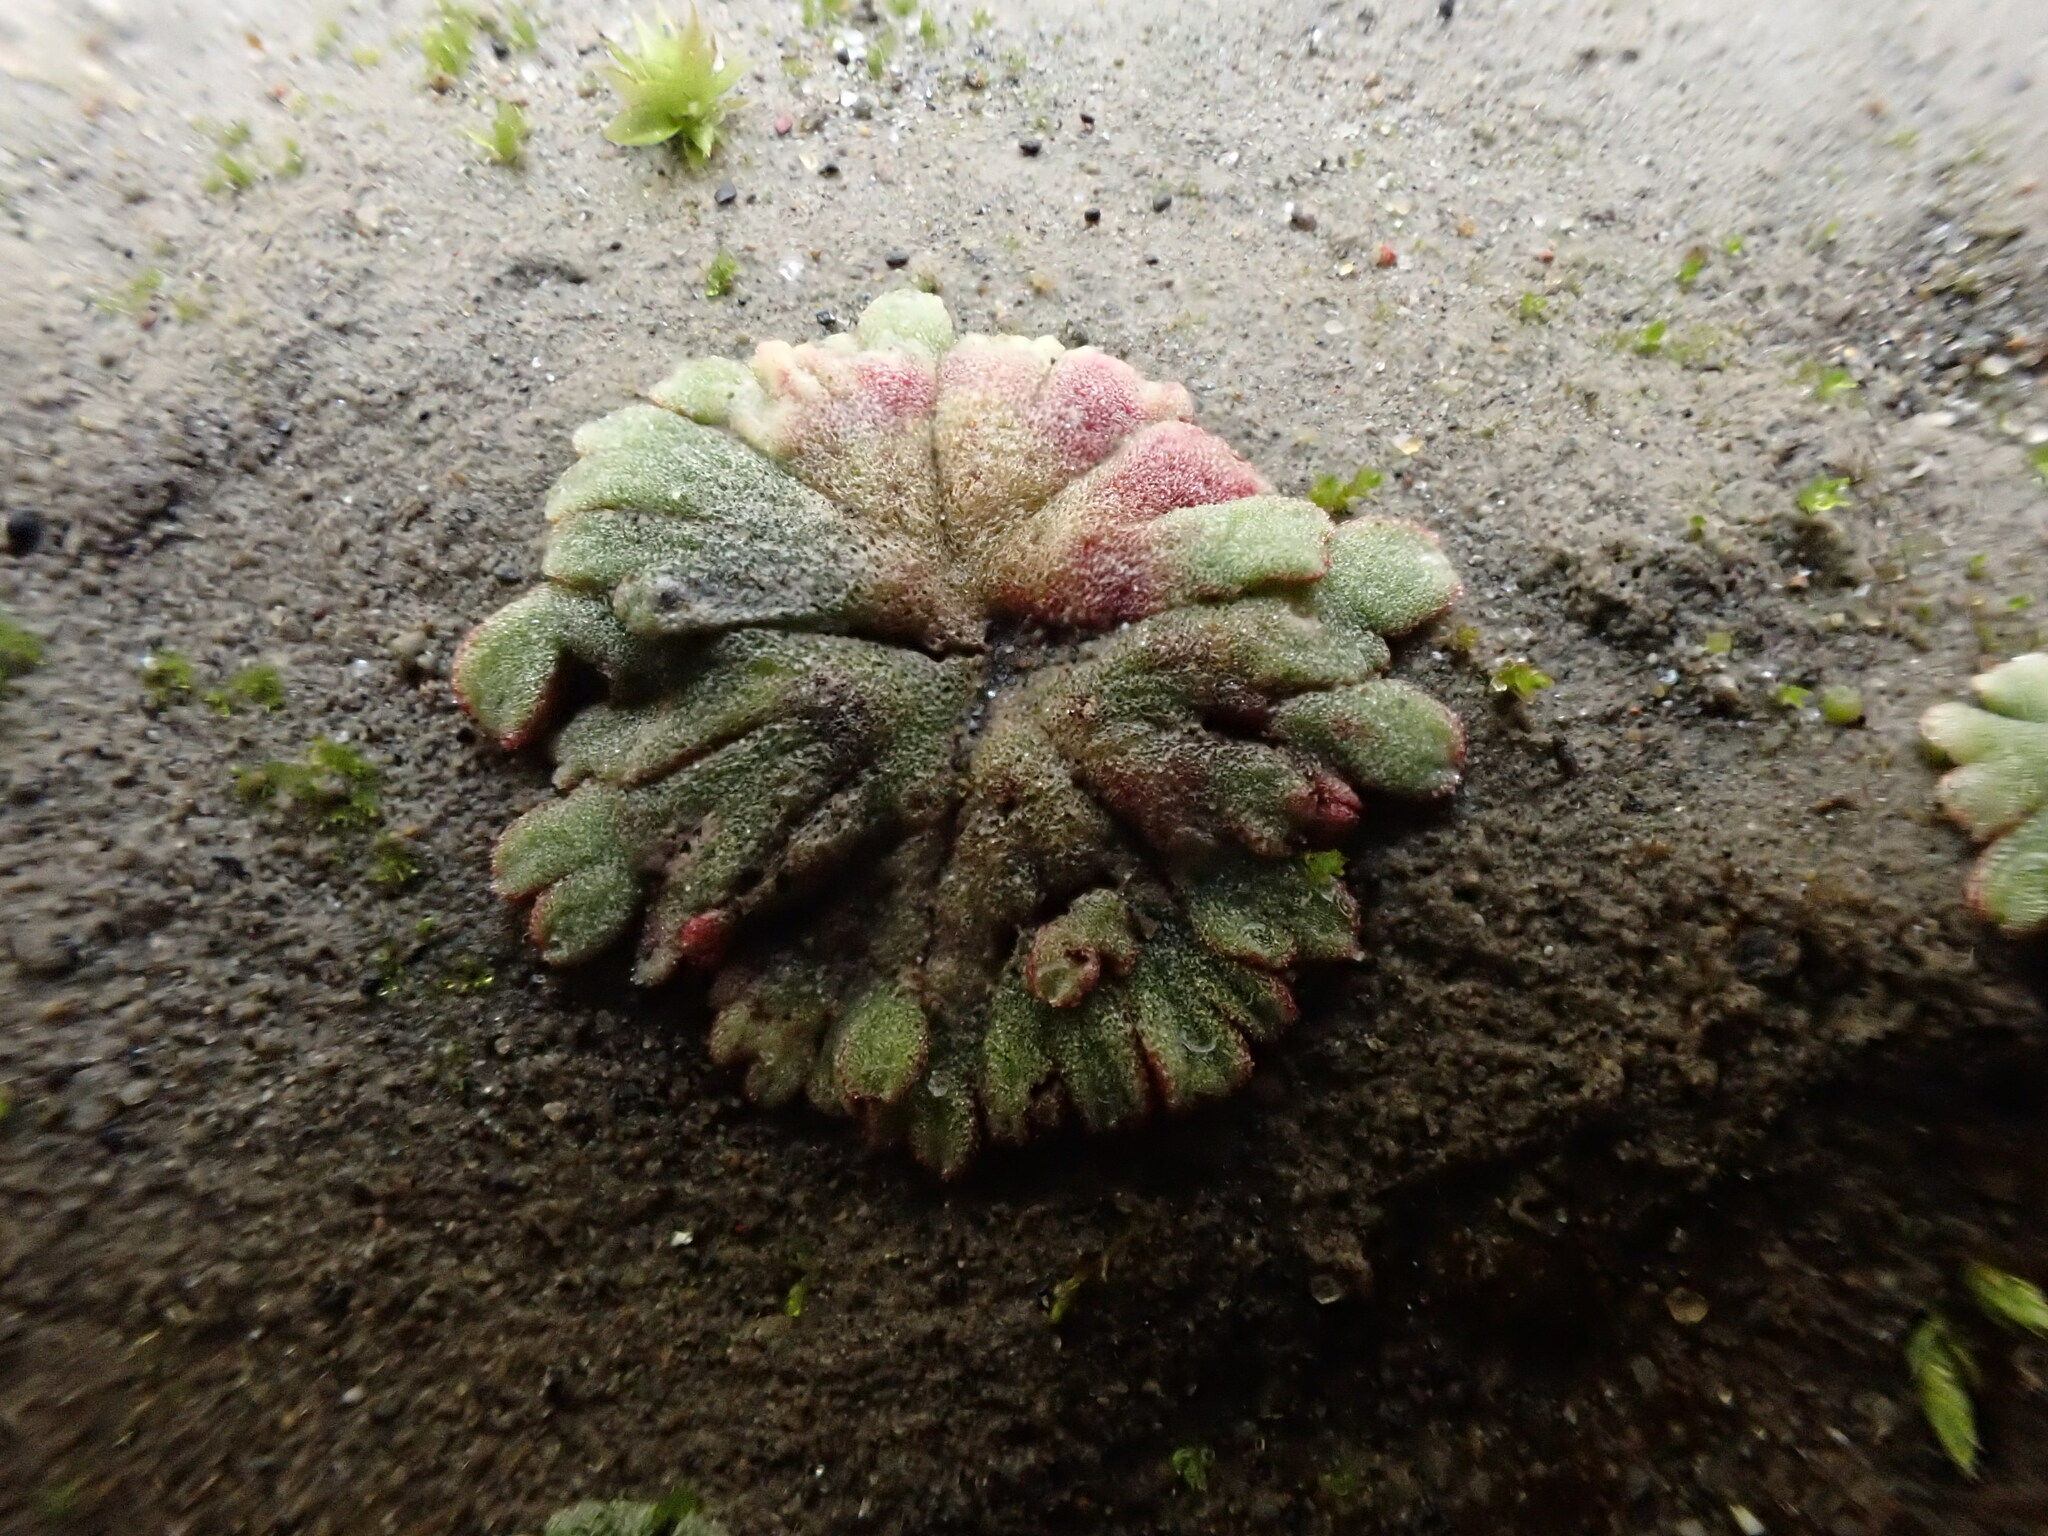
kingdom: Plantae
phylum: Marchantiophyta
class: Marchantiopsida
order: Marchantiales
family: Ricciaceae
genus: Riccia
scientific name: Riccia frostii
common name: Frost s crystalwort
